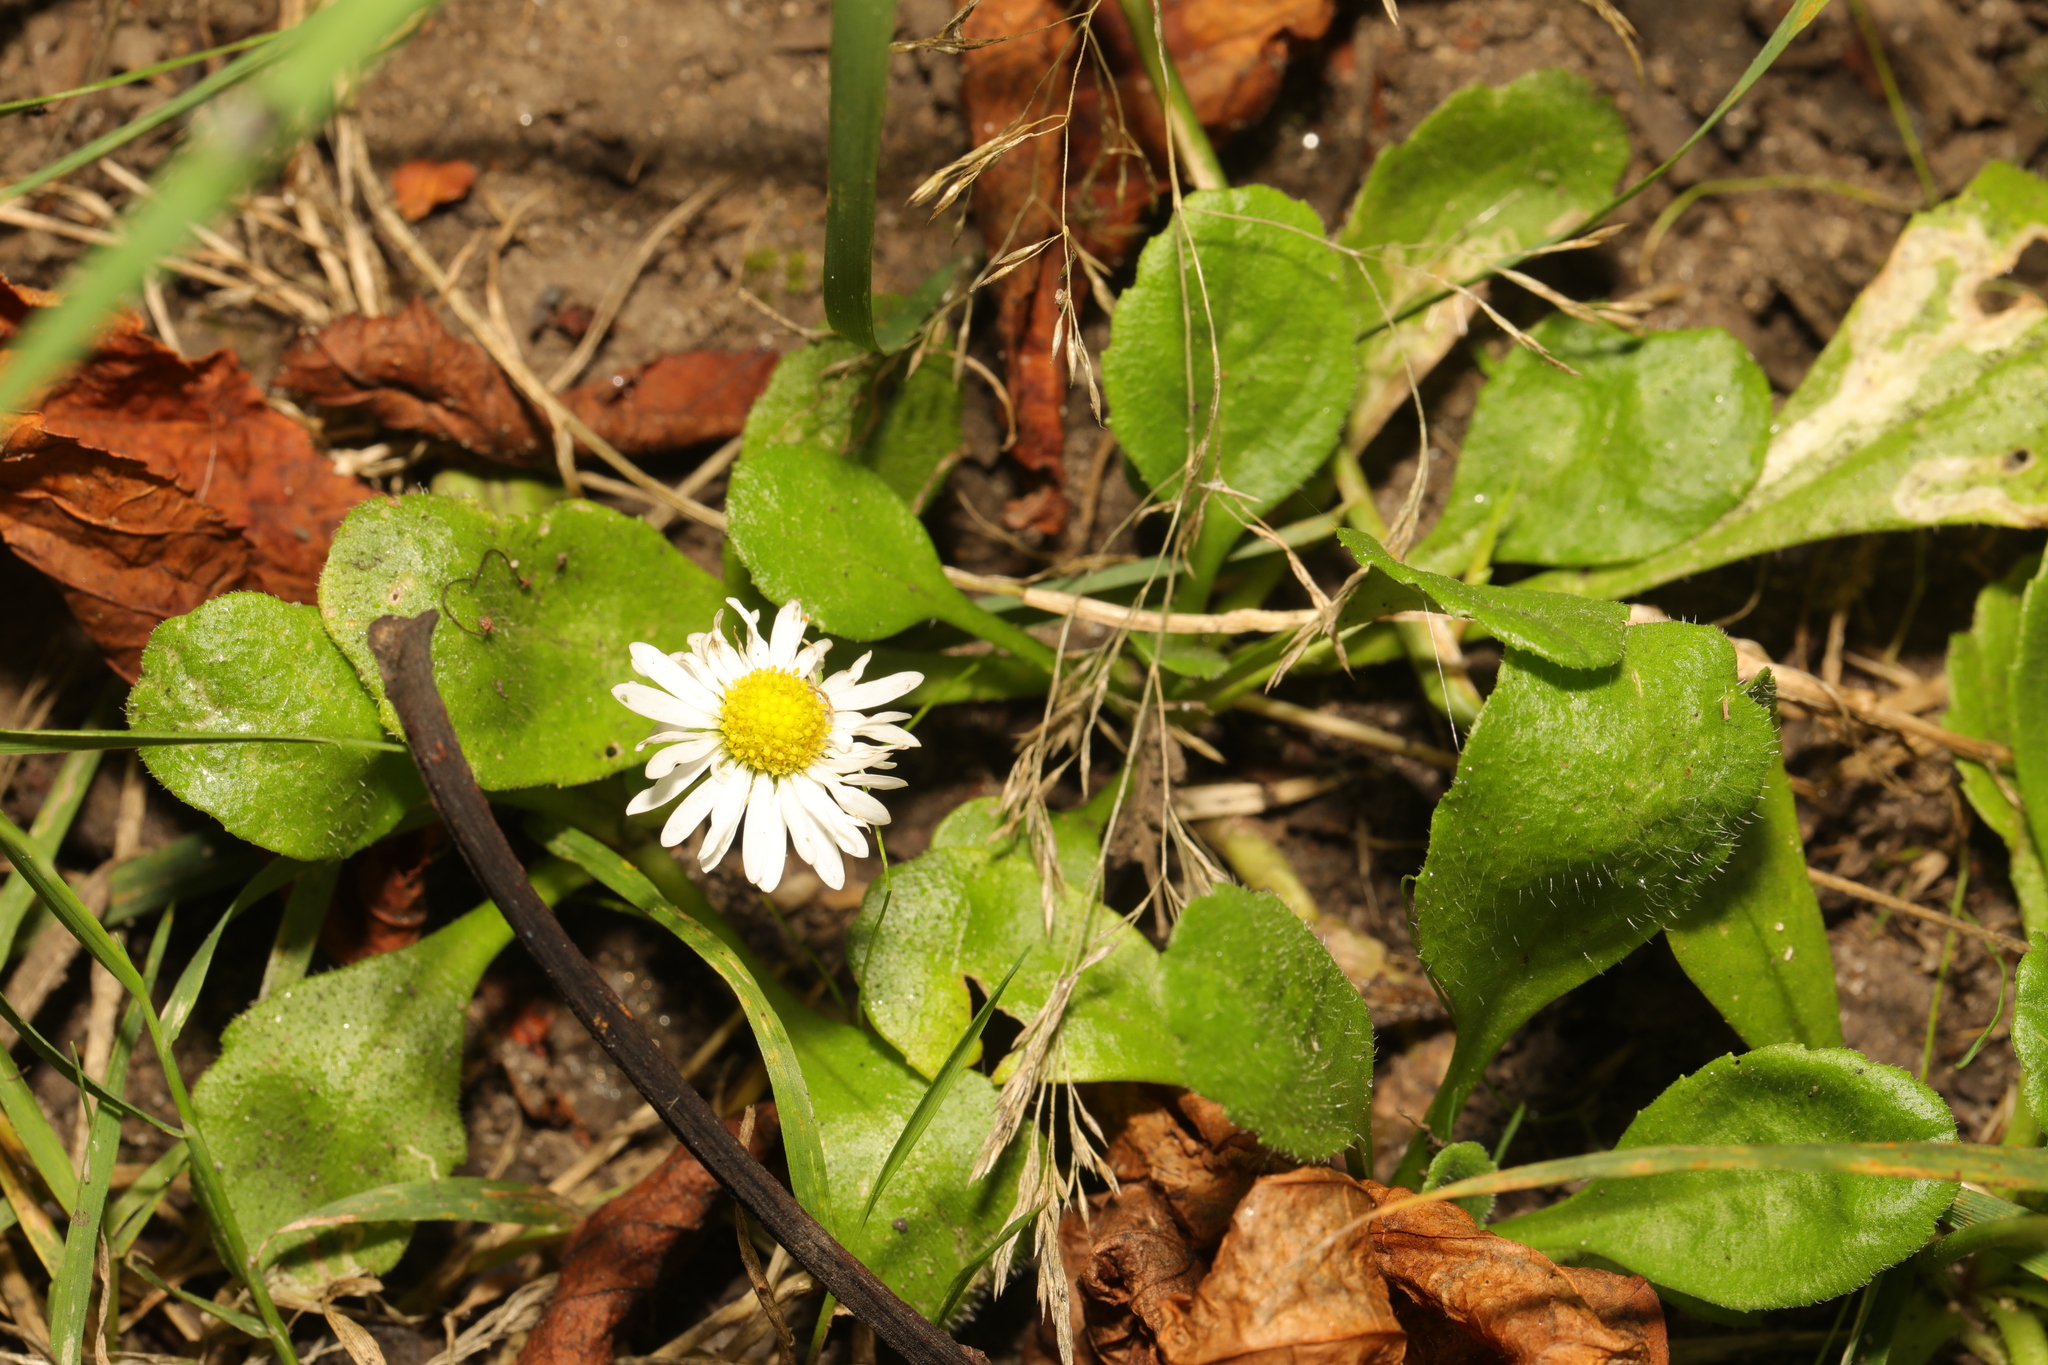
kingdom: Plantae
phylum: Tracheophyta
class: Magnoliopsida
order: Asterales
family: Asteraceae
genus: Bellis
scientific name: Bellis perennis
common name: Lawndaisy
